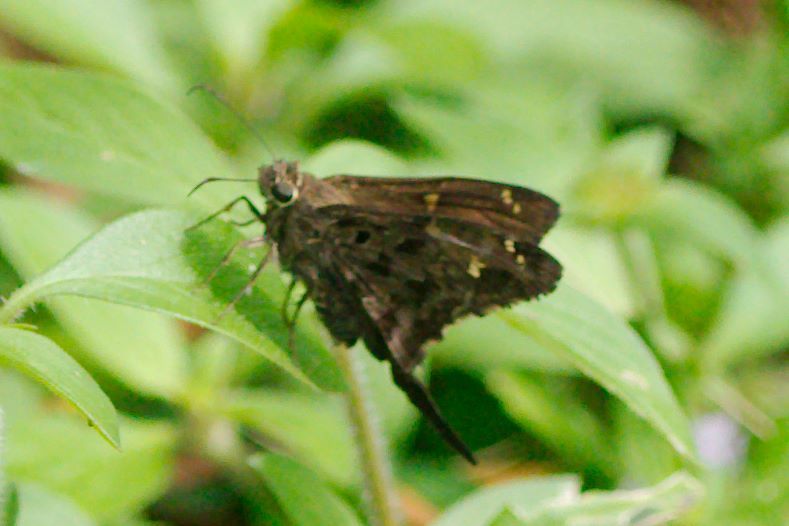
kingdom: Animalia
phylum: Arthropoda
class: Insecta
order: Lepidoptera
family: Hesperiidae
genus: Thorybes
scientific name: Thorybes
